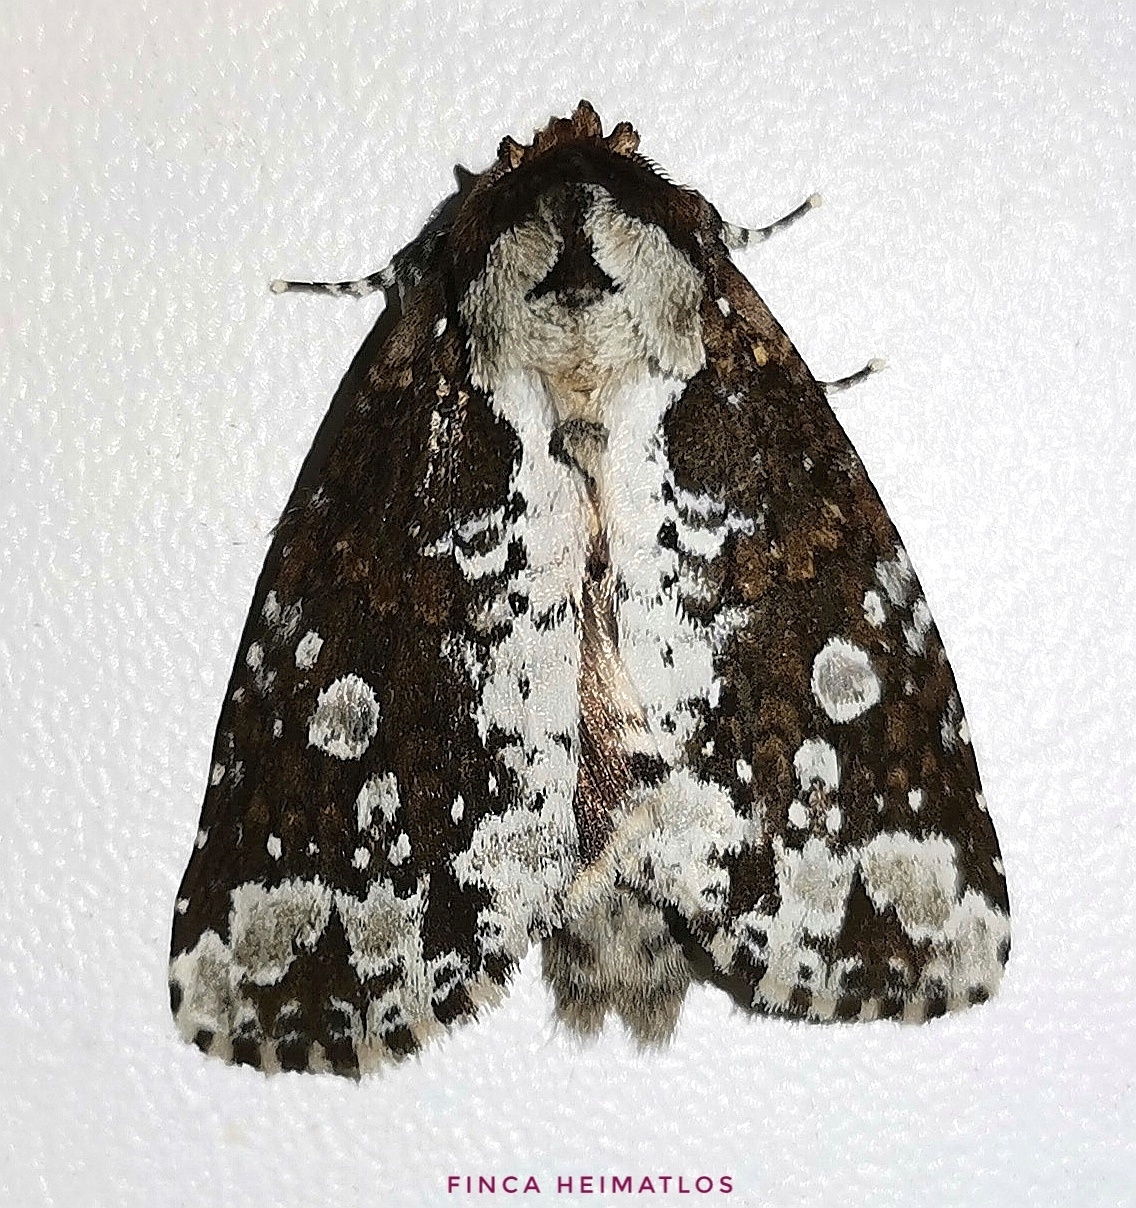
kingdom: Animalia
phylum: Arthropoda
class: Insecta
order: Lepidoptera
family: Notodontidae
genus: Disphragis
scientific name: Disphragis aemula
